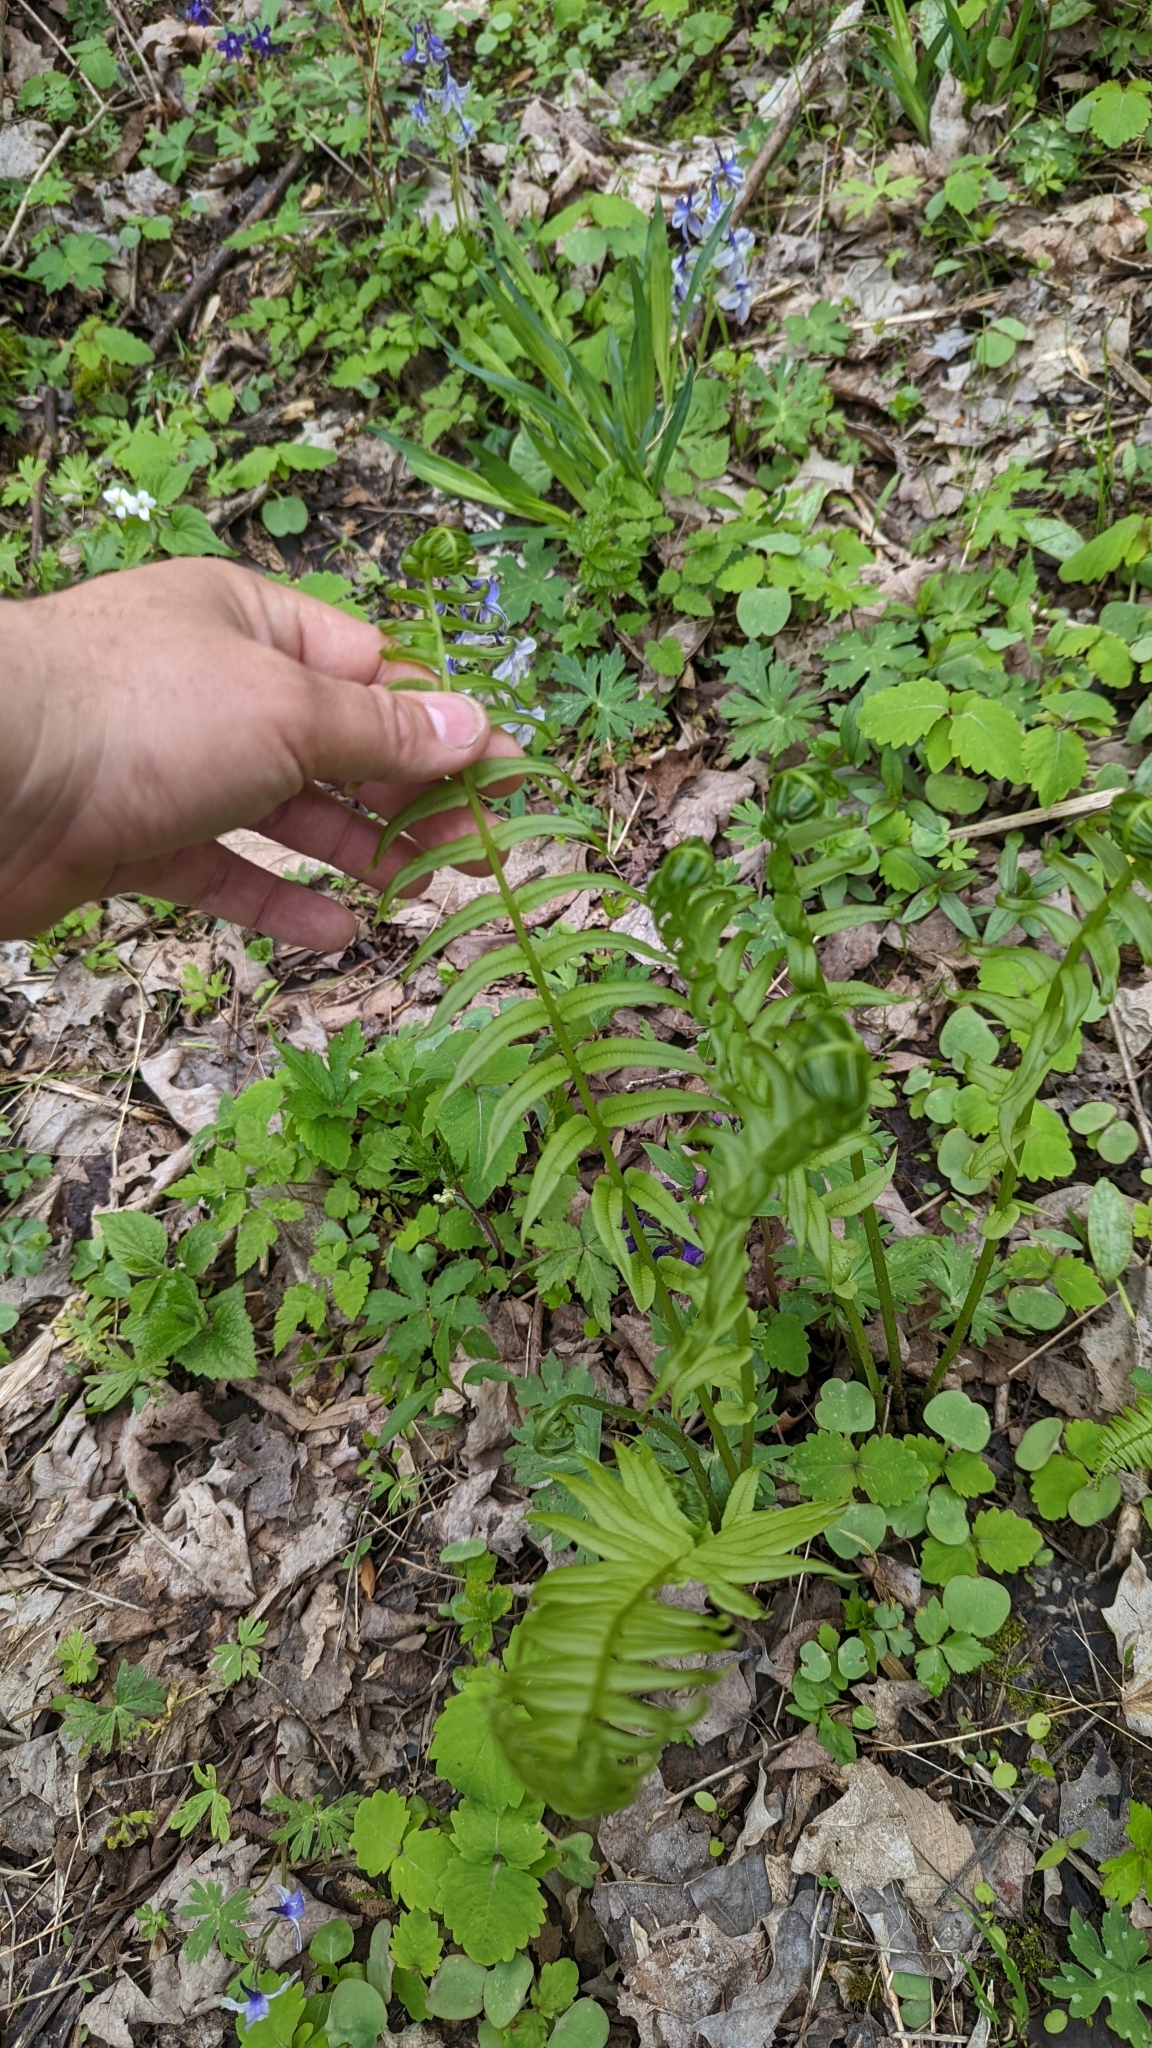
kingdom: Plantae
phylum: Tracheophyta
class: Polypodiopsida
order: Polypodiales
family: Diplaziopsidaceae
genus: Homalosorus
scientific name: Homalosorus pycnocarpos
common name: Glade fern
